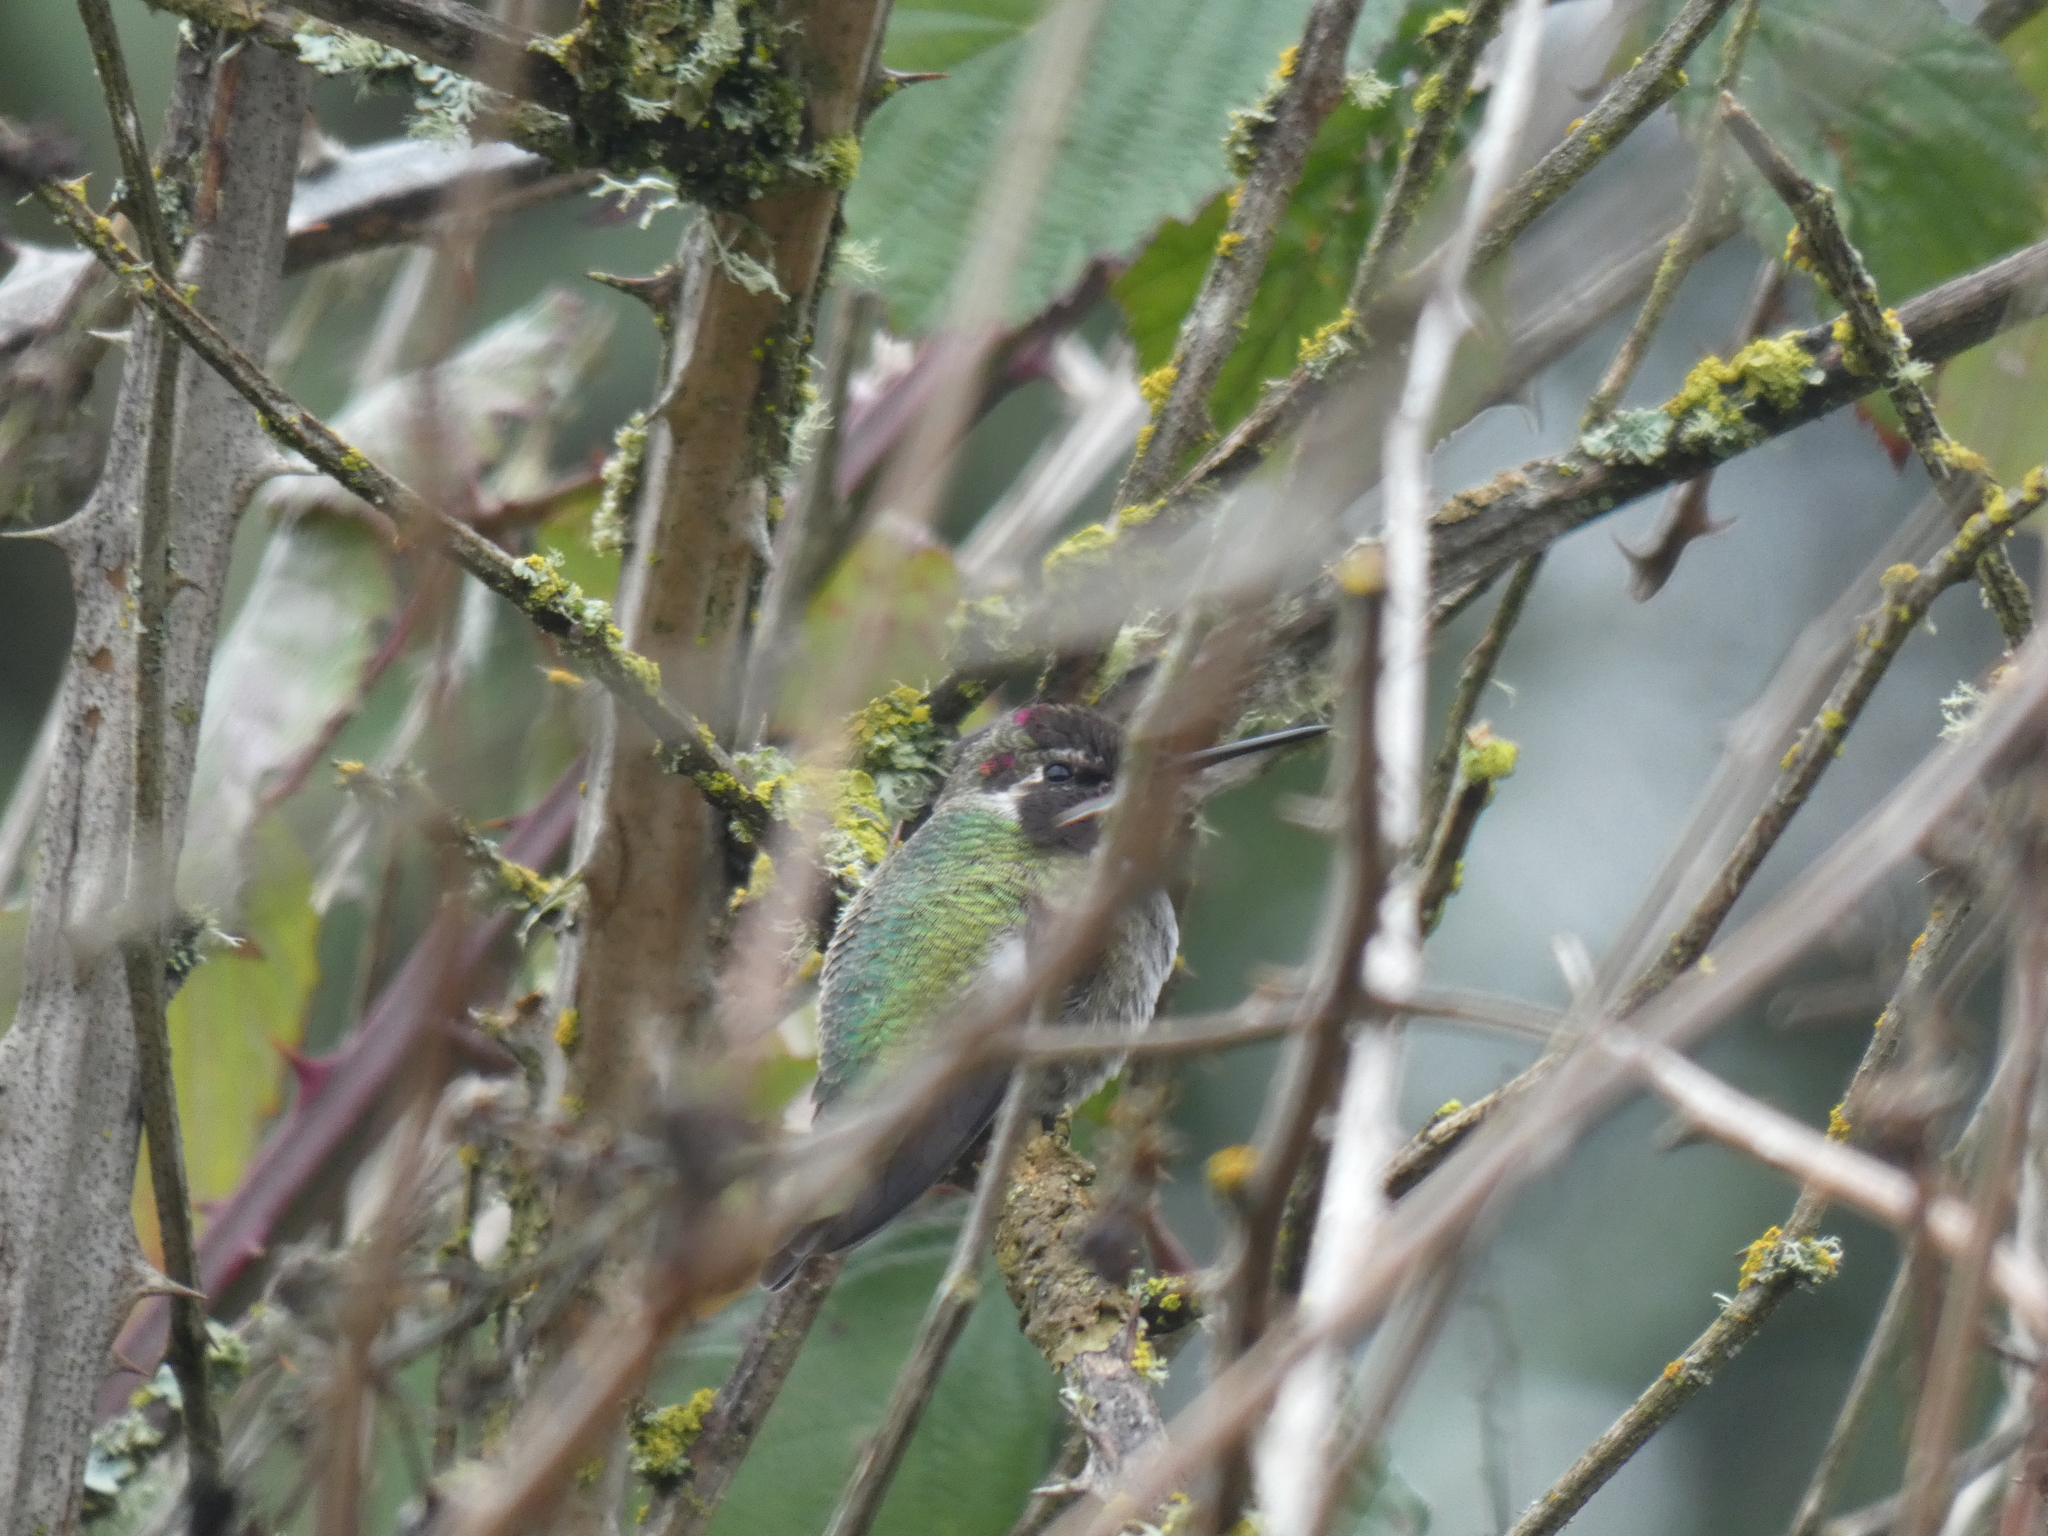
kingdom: Animalia
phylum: Chordata
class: Aves
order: Apodiformes
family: Trochilidae
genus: Calypte
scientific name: Calypte anna
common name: Anna's hummingbird
